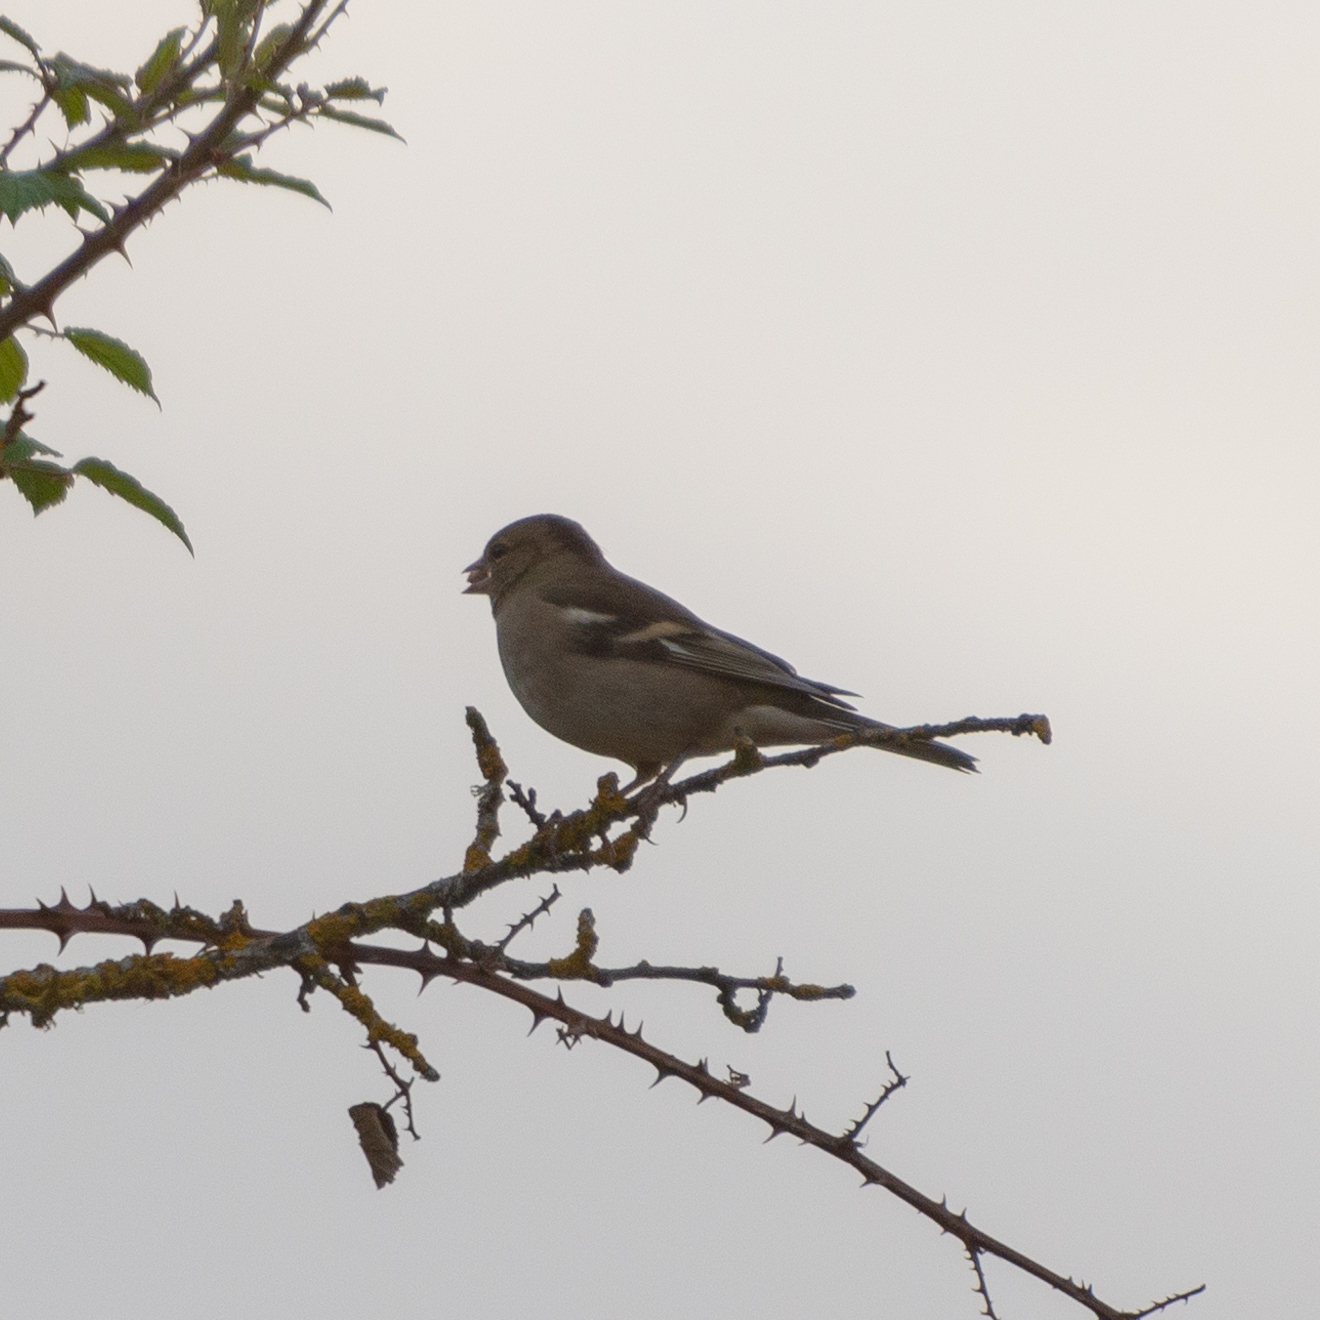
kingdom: Animalia
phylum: Chordata
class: Aves
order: Passeriformes
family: Fringillidae
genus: Fringilla
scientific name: Fringilla coelebs
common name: Common chaffinch
